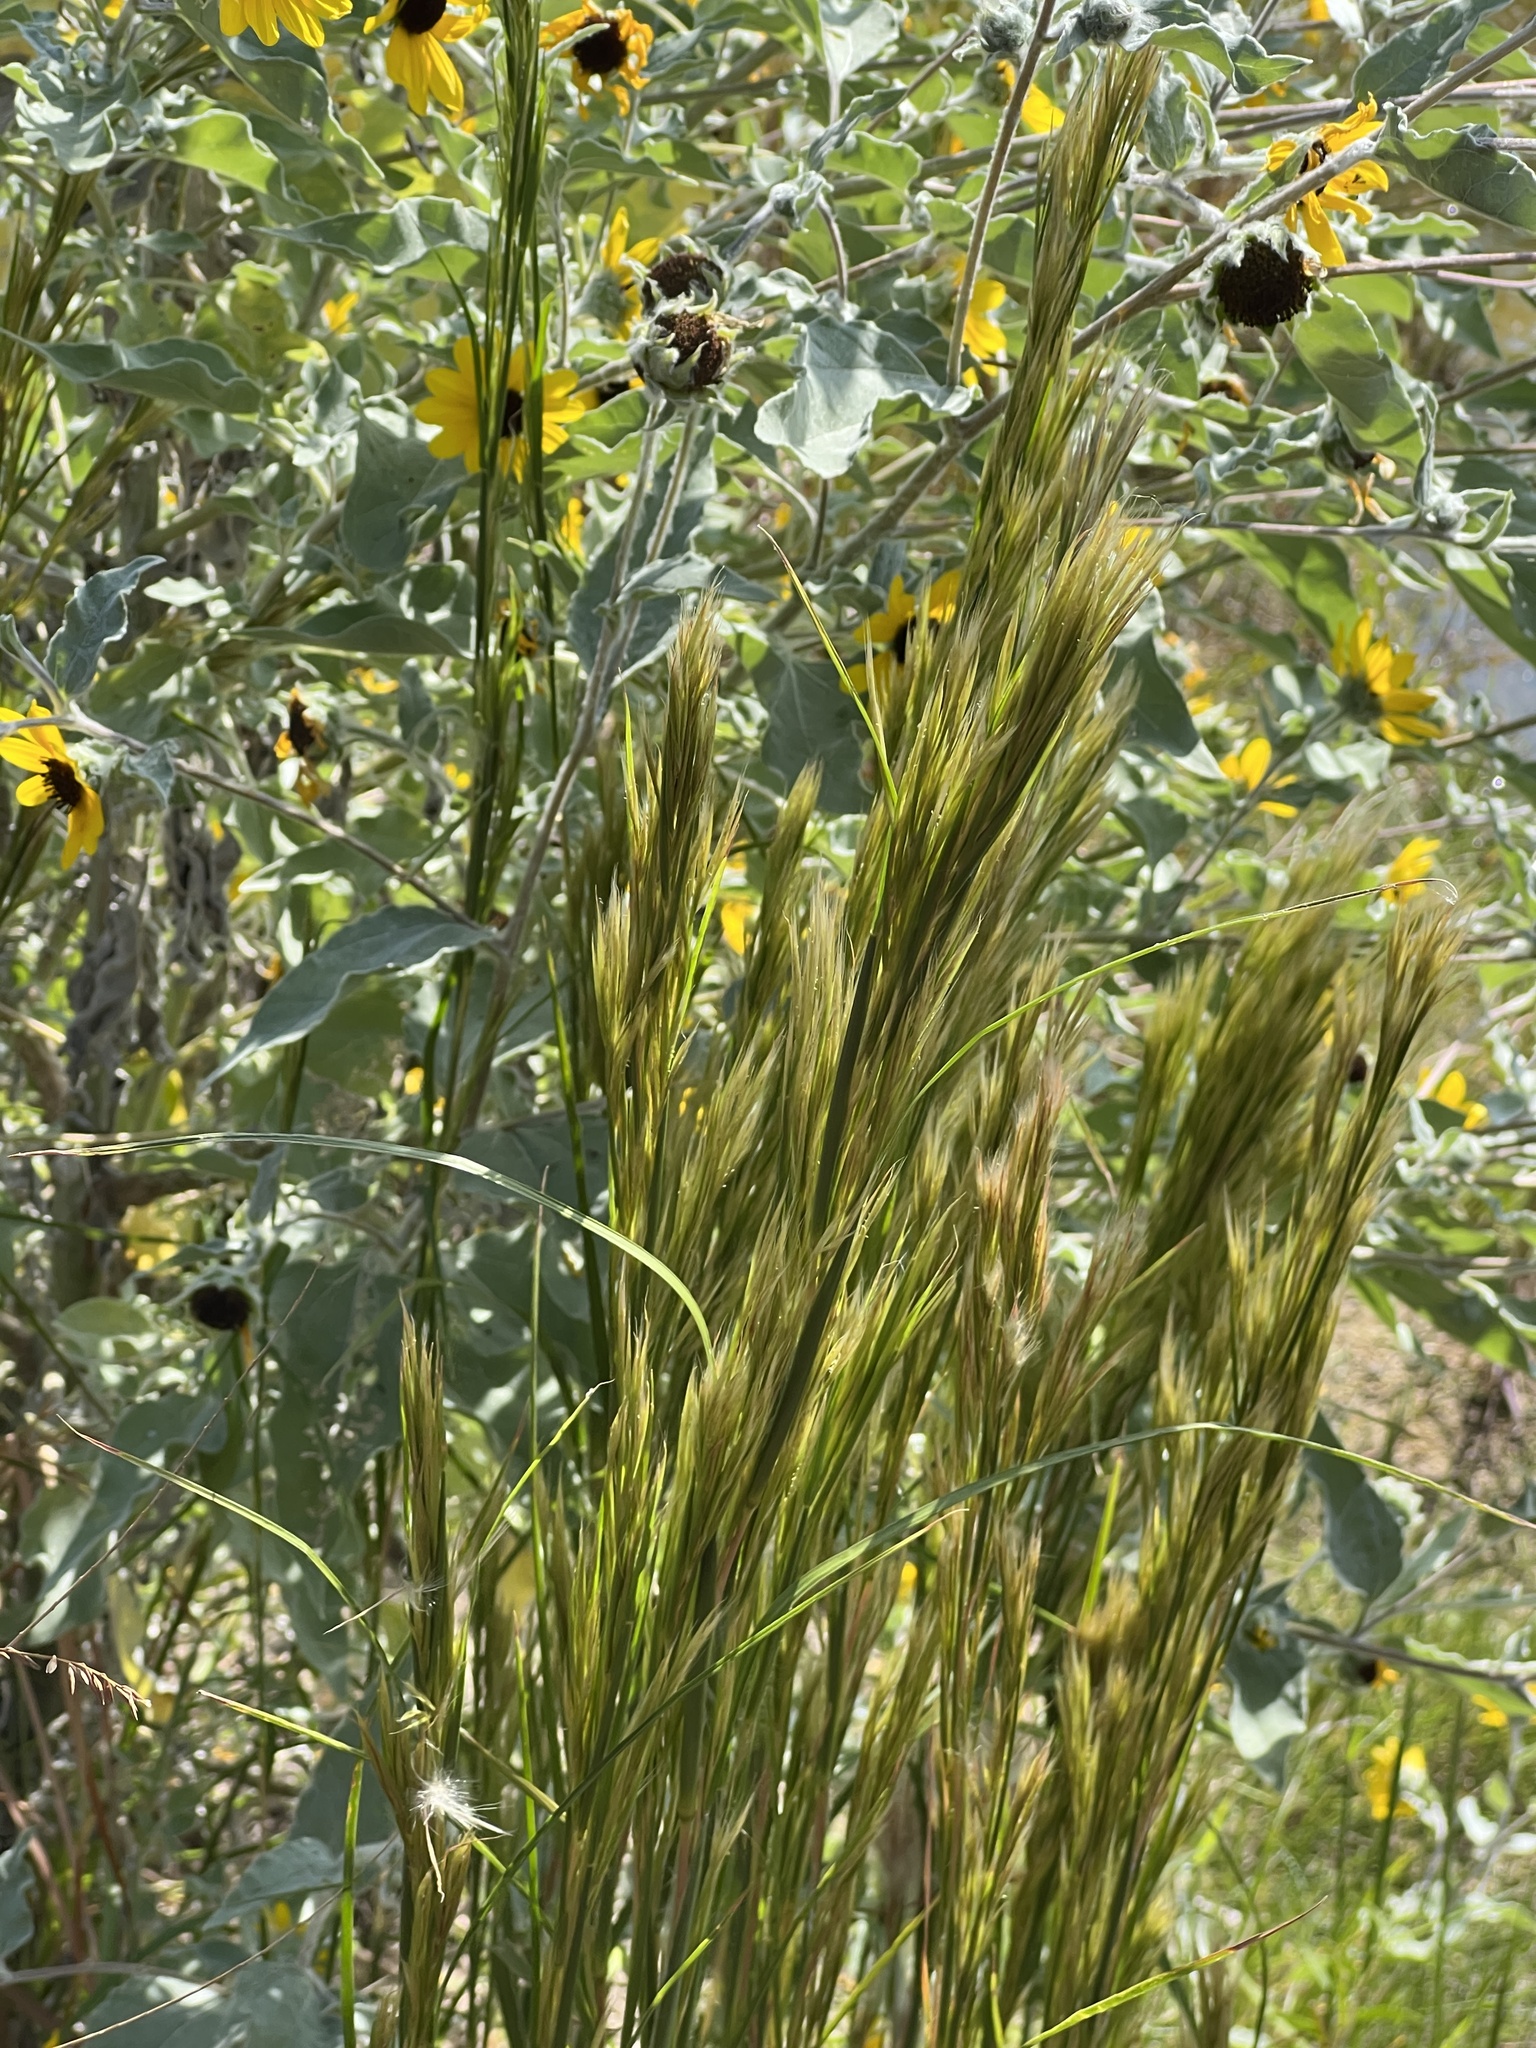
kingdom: Plantae
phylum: Tracheophyta
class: Liliopsida
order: Poales
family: Poaceae
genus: Andropogon
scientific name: Andropogon tenuispatheus
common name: Bushy bluestem
